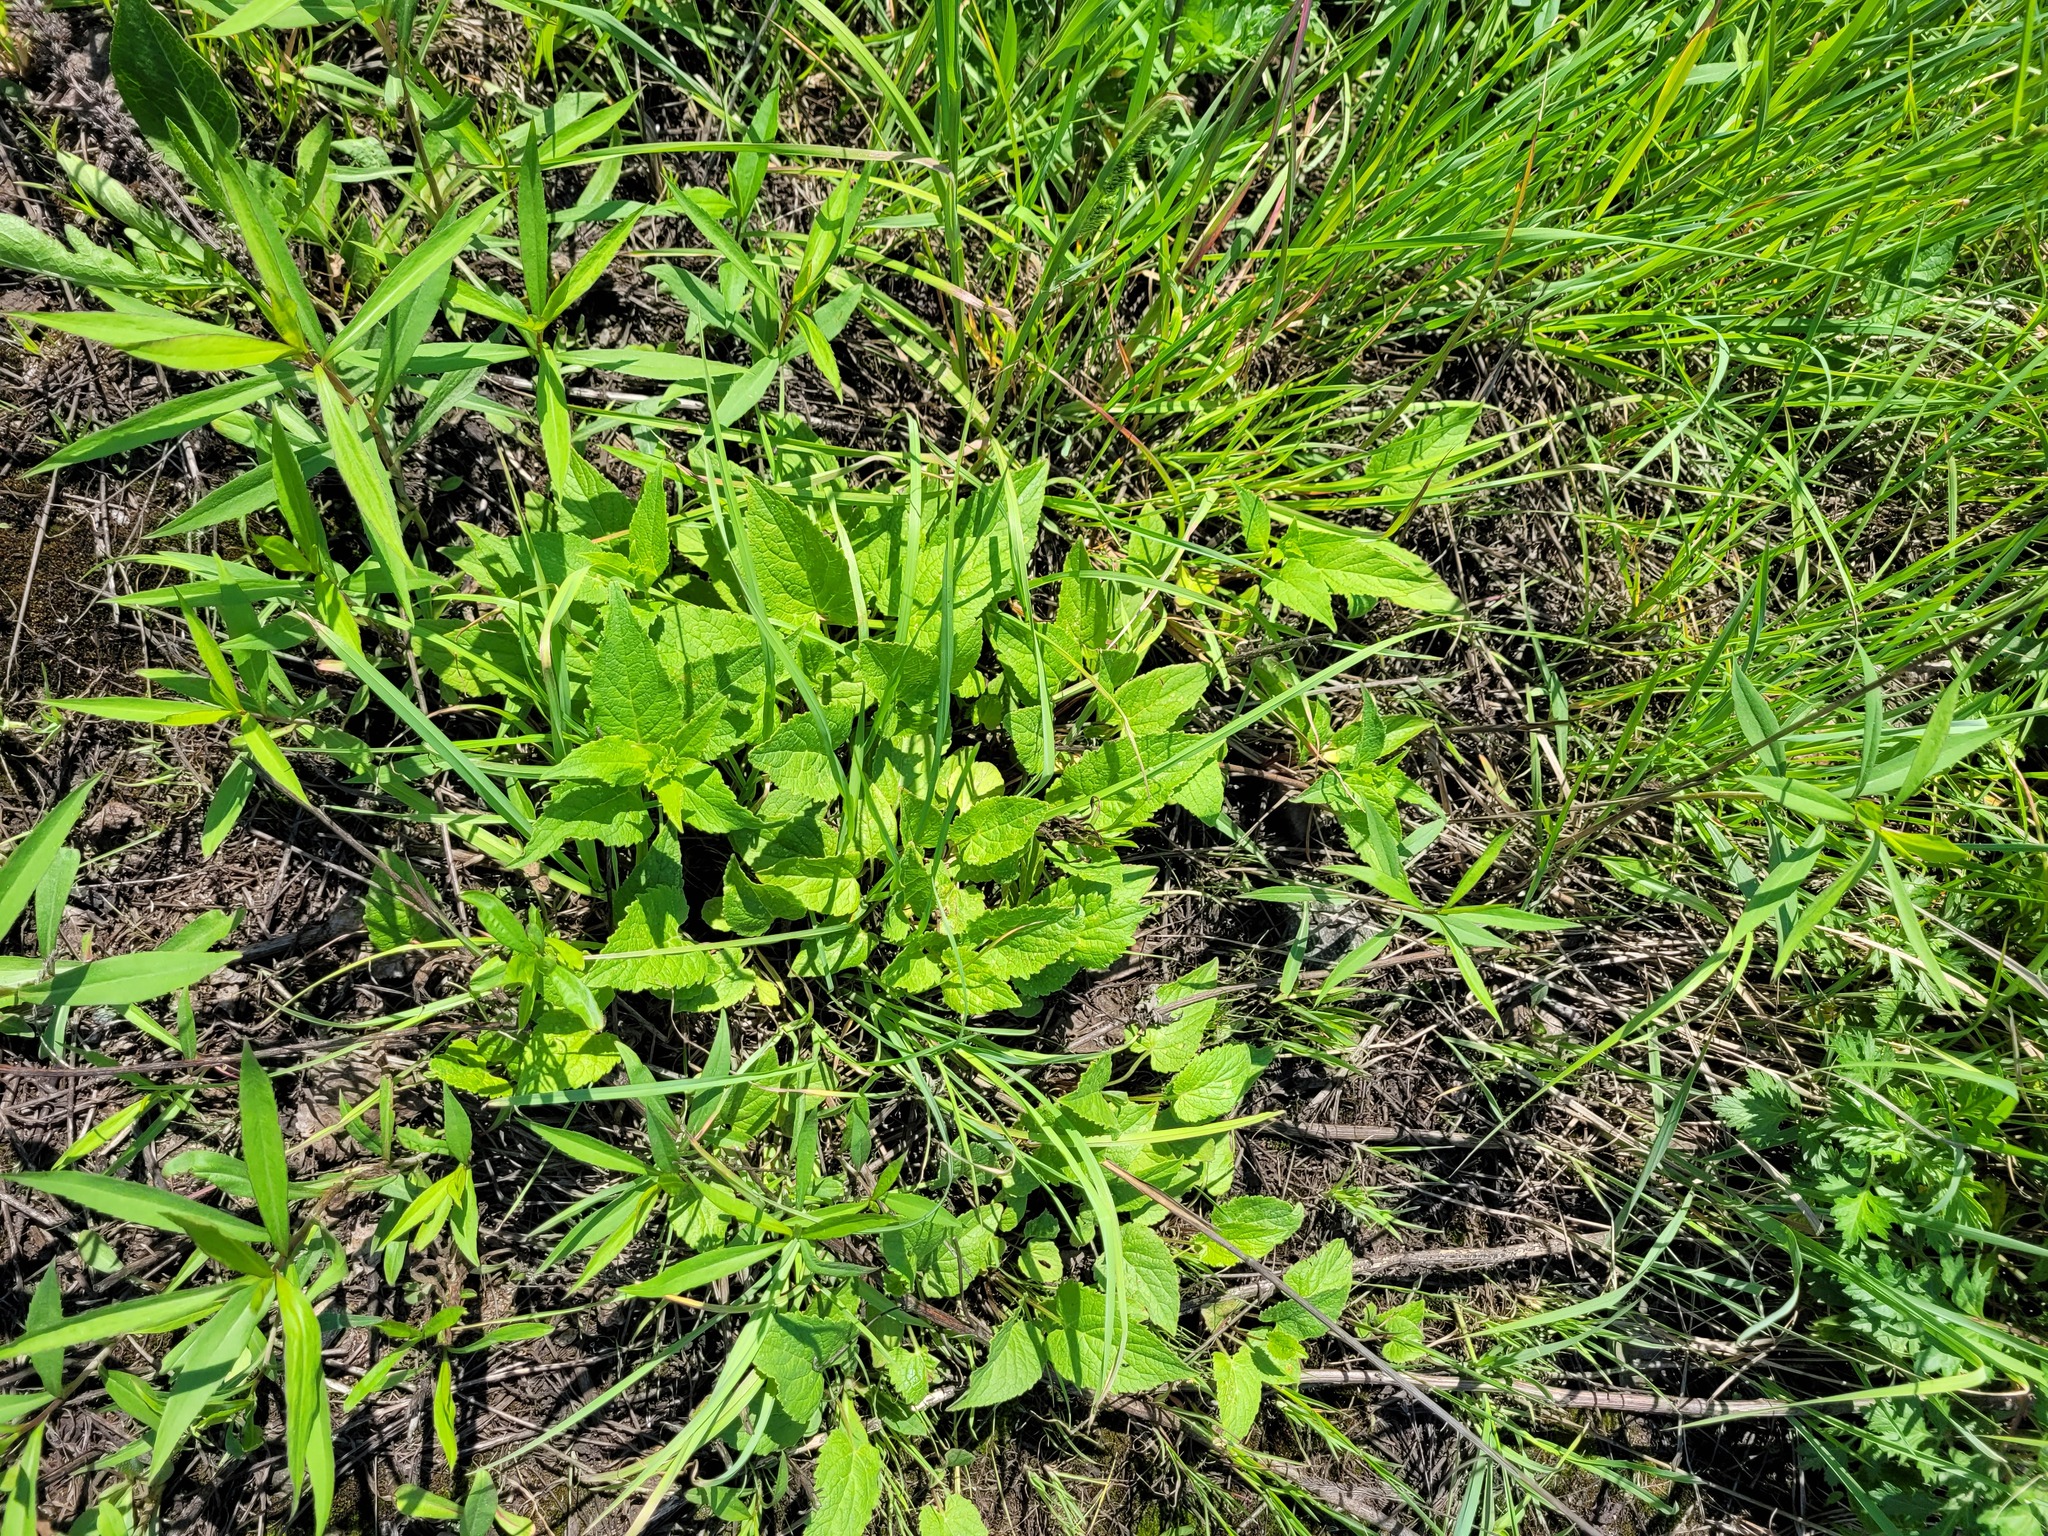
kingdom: Plantae
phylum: Tracheophyta
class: Magnoliopsida
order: Asterales
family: Campanulaceae
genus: Campanula
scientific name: Campanula glomerata
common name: Clustered bellflower
